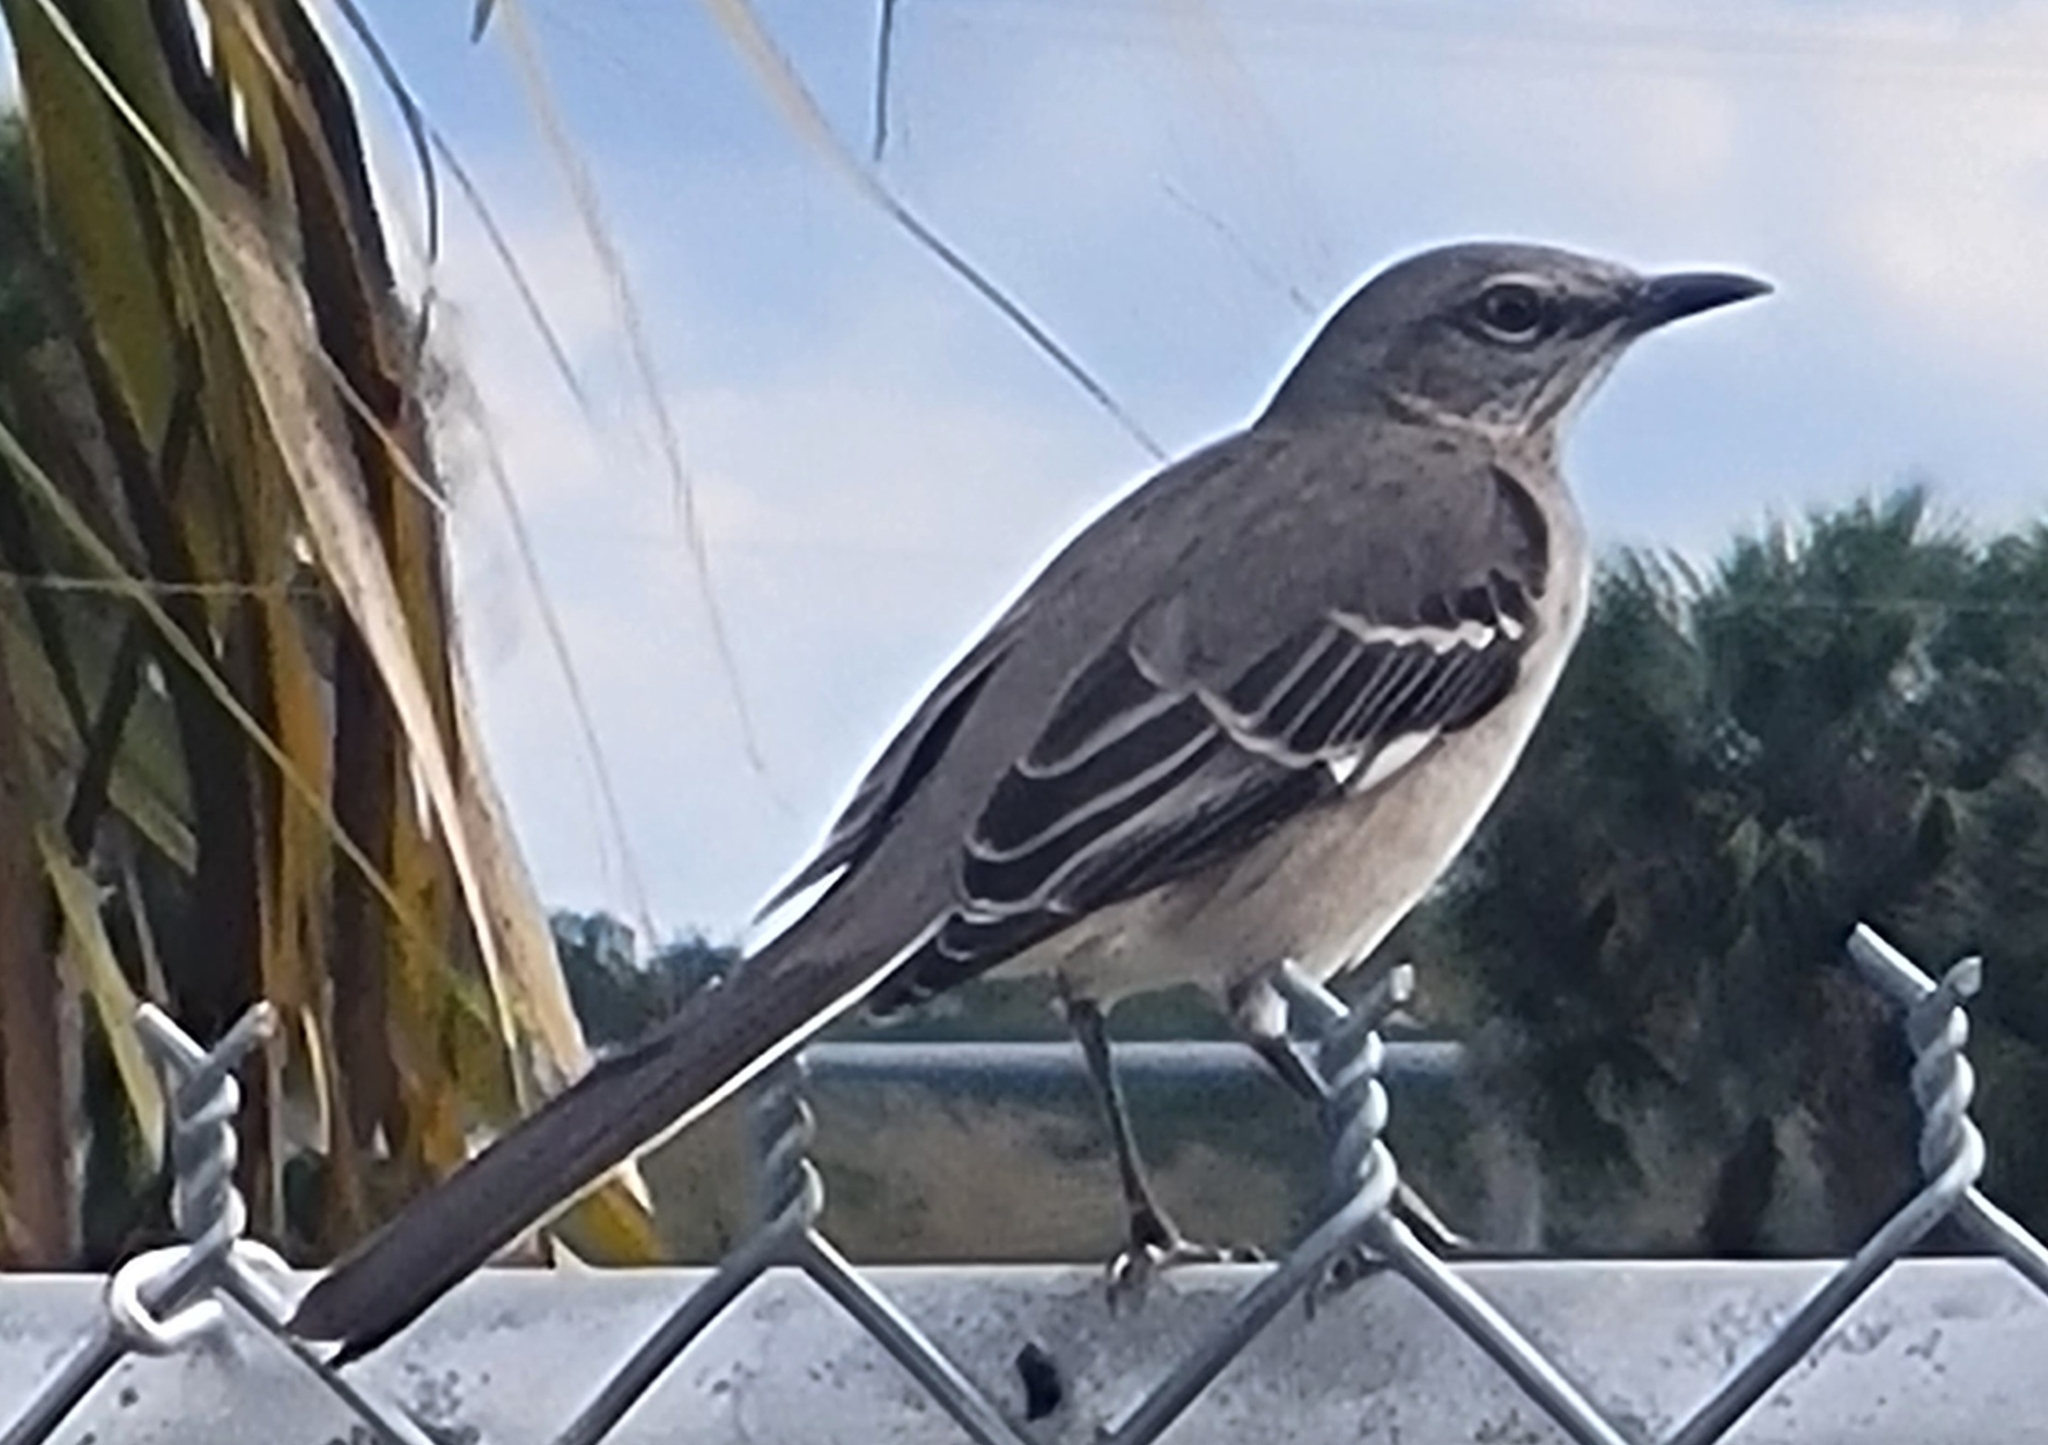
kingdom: Animalia
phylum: Chordata
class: Aves
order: Passeriformes
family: Mimidae
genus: Mimus
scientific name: Mimus polyglottos
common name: Northern mockingbird
